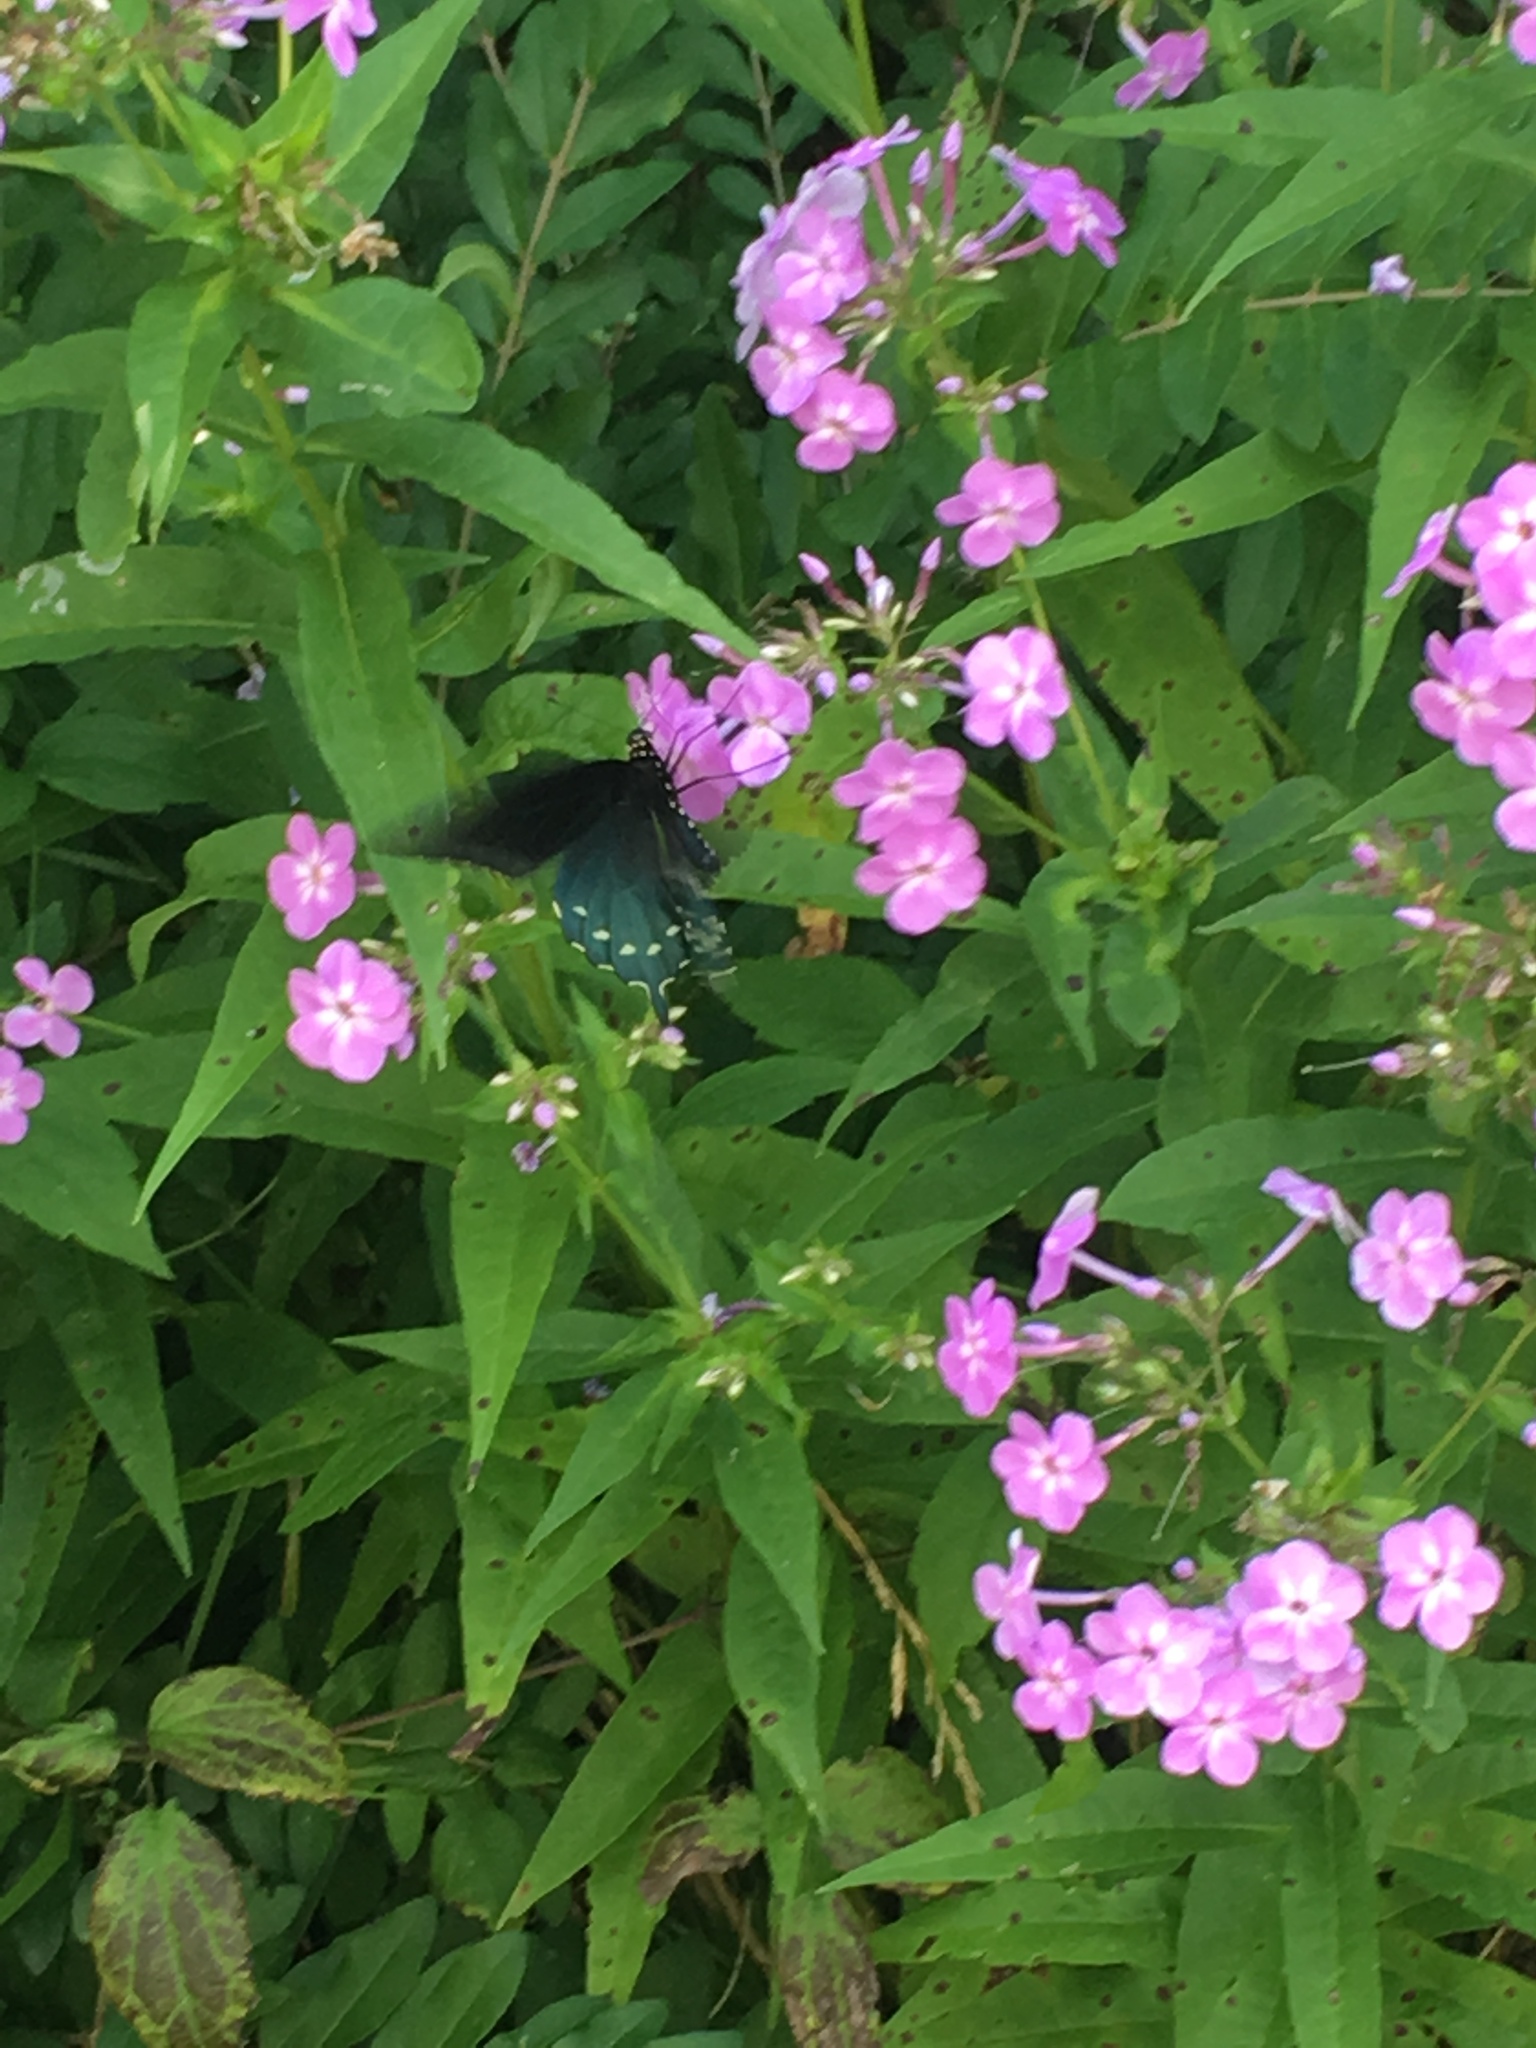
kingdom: Animalia
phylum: Arthropoda
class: Insecta
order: Lepidoptera
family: Papilionidae
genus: Battus
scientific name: Battus philenor
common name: Pipevine swallowtail
